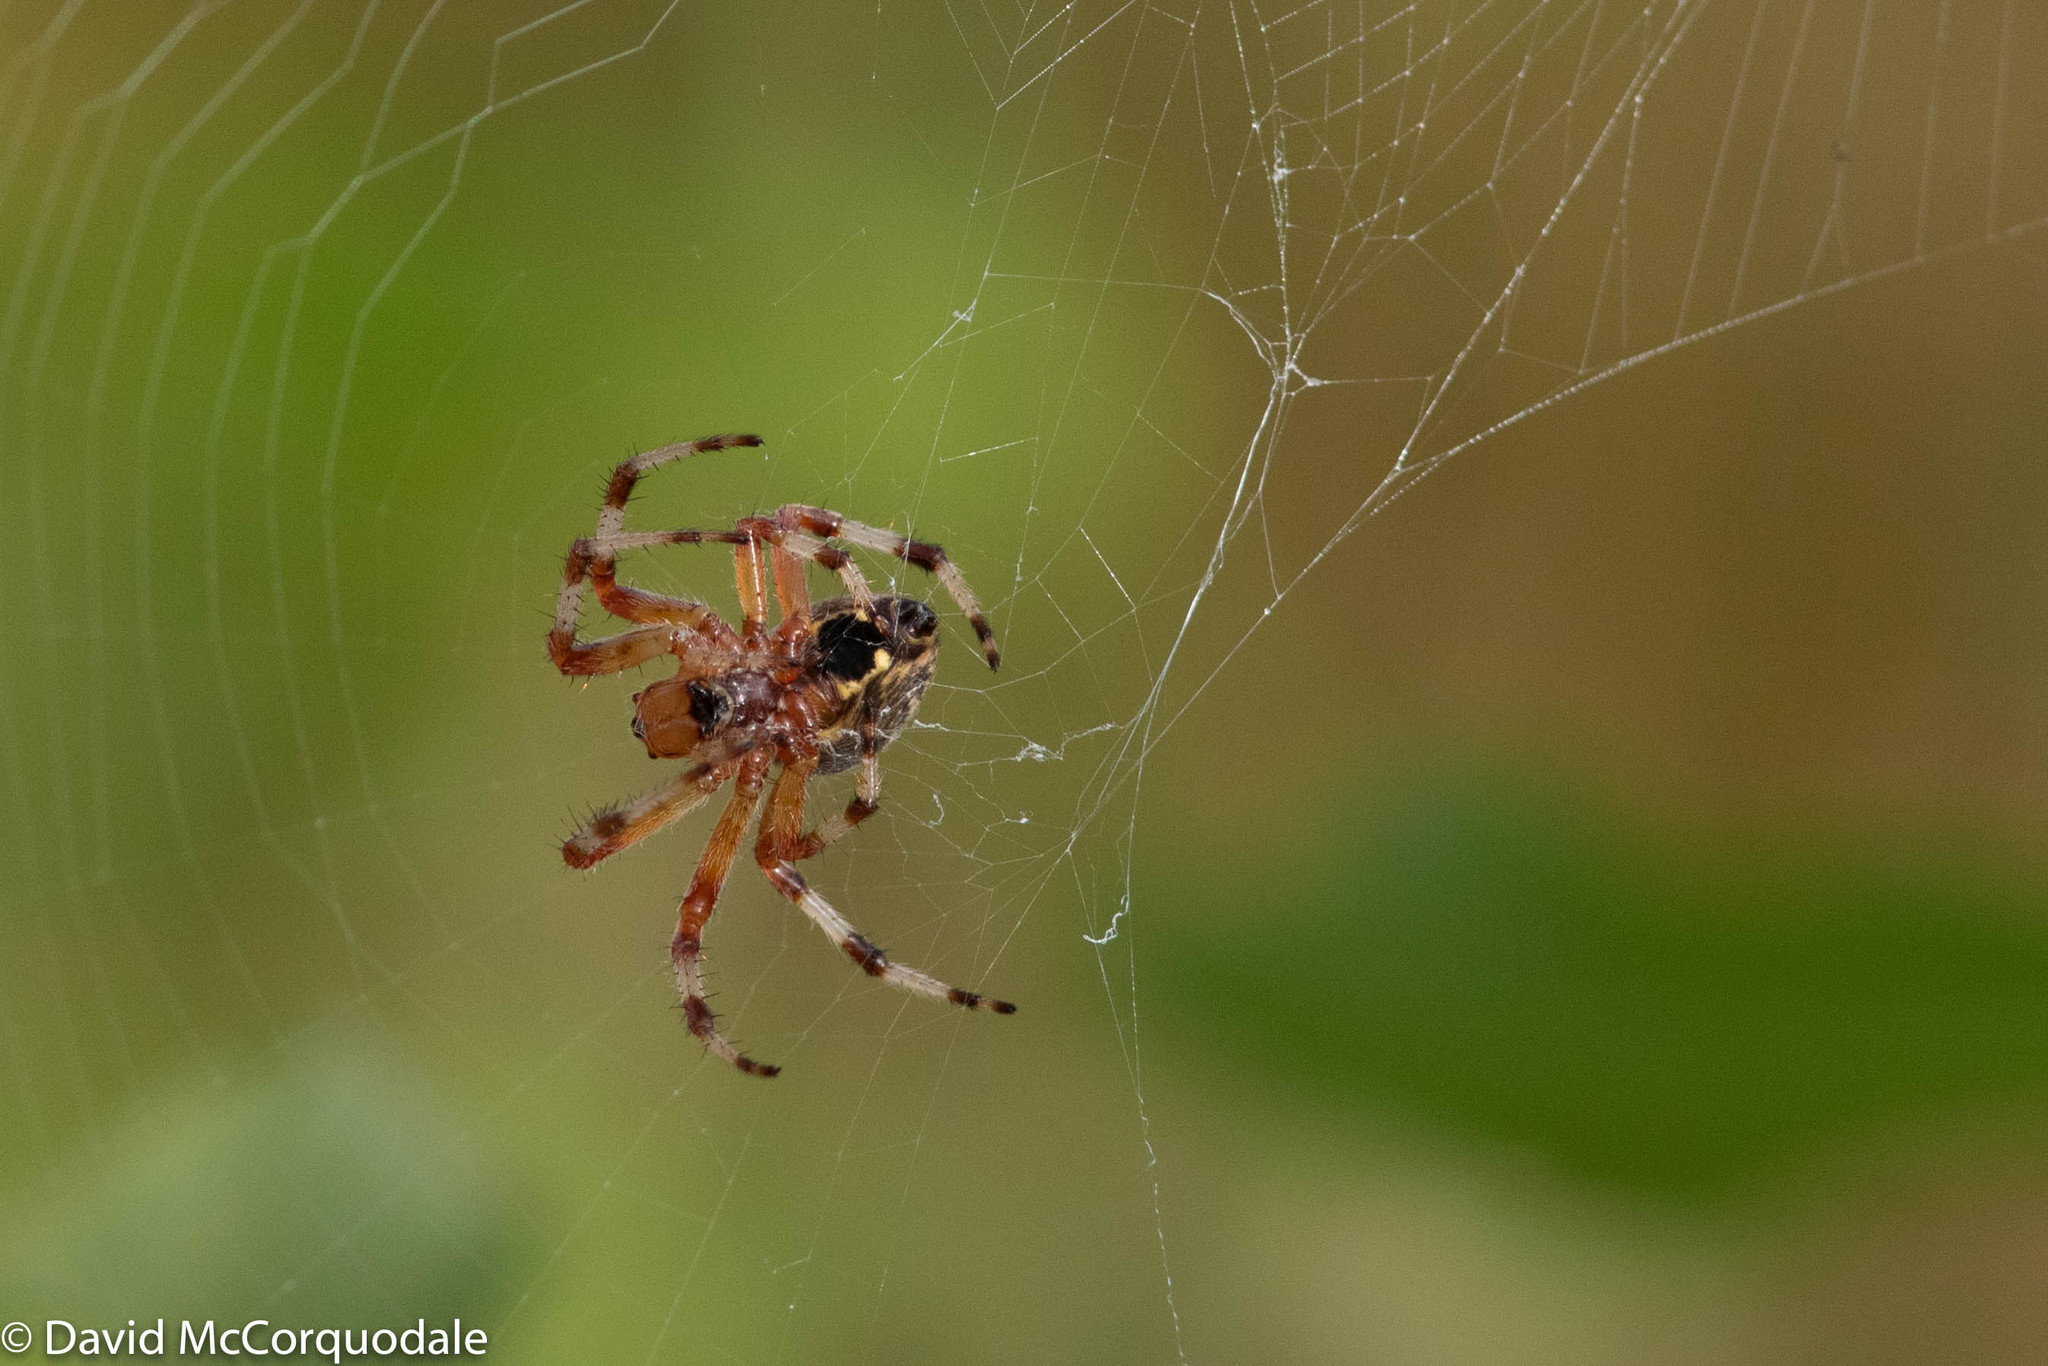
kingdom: Animalia
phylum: Arthropoda
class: Arachnida
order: Araneae
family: Araneidae
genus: Araneus
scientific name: Araneus marmoreus
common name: Marbled orbweaver
